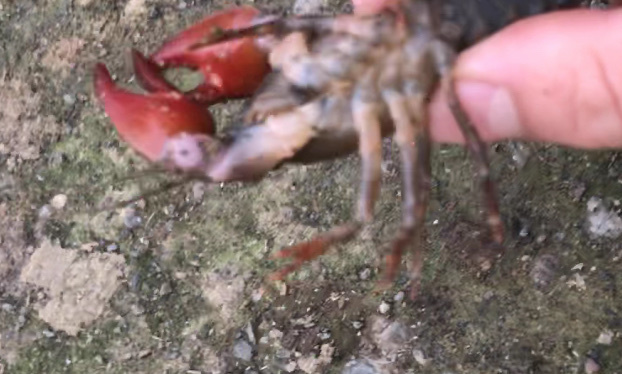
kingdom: Animalia
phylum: Arthropoda
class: Malacostraca
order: Decapoda
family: Astacidae
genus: Pacifastacus
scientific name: Pacifastacus leniusculus
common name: Signal crayfish
